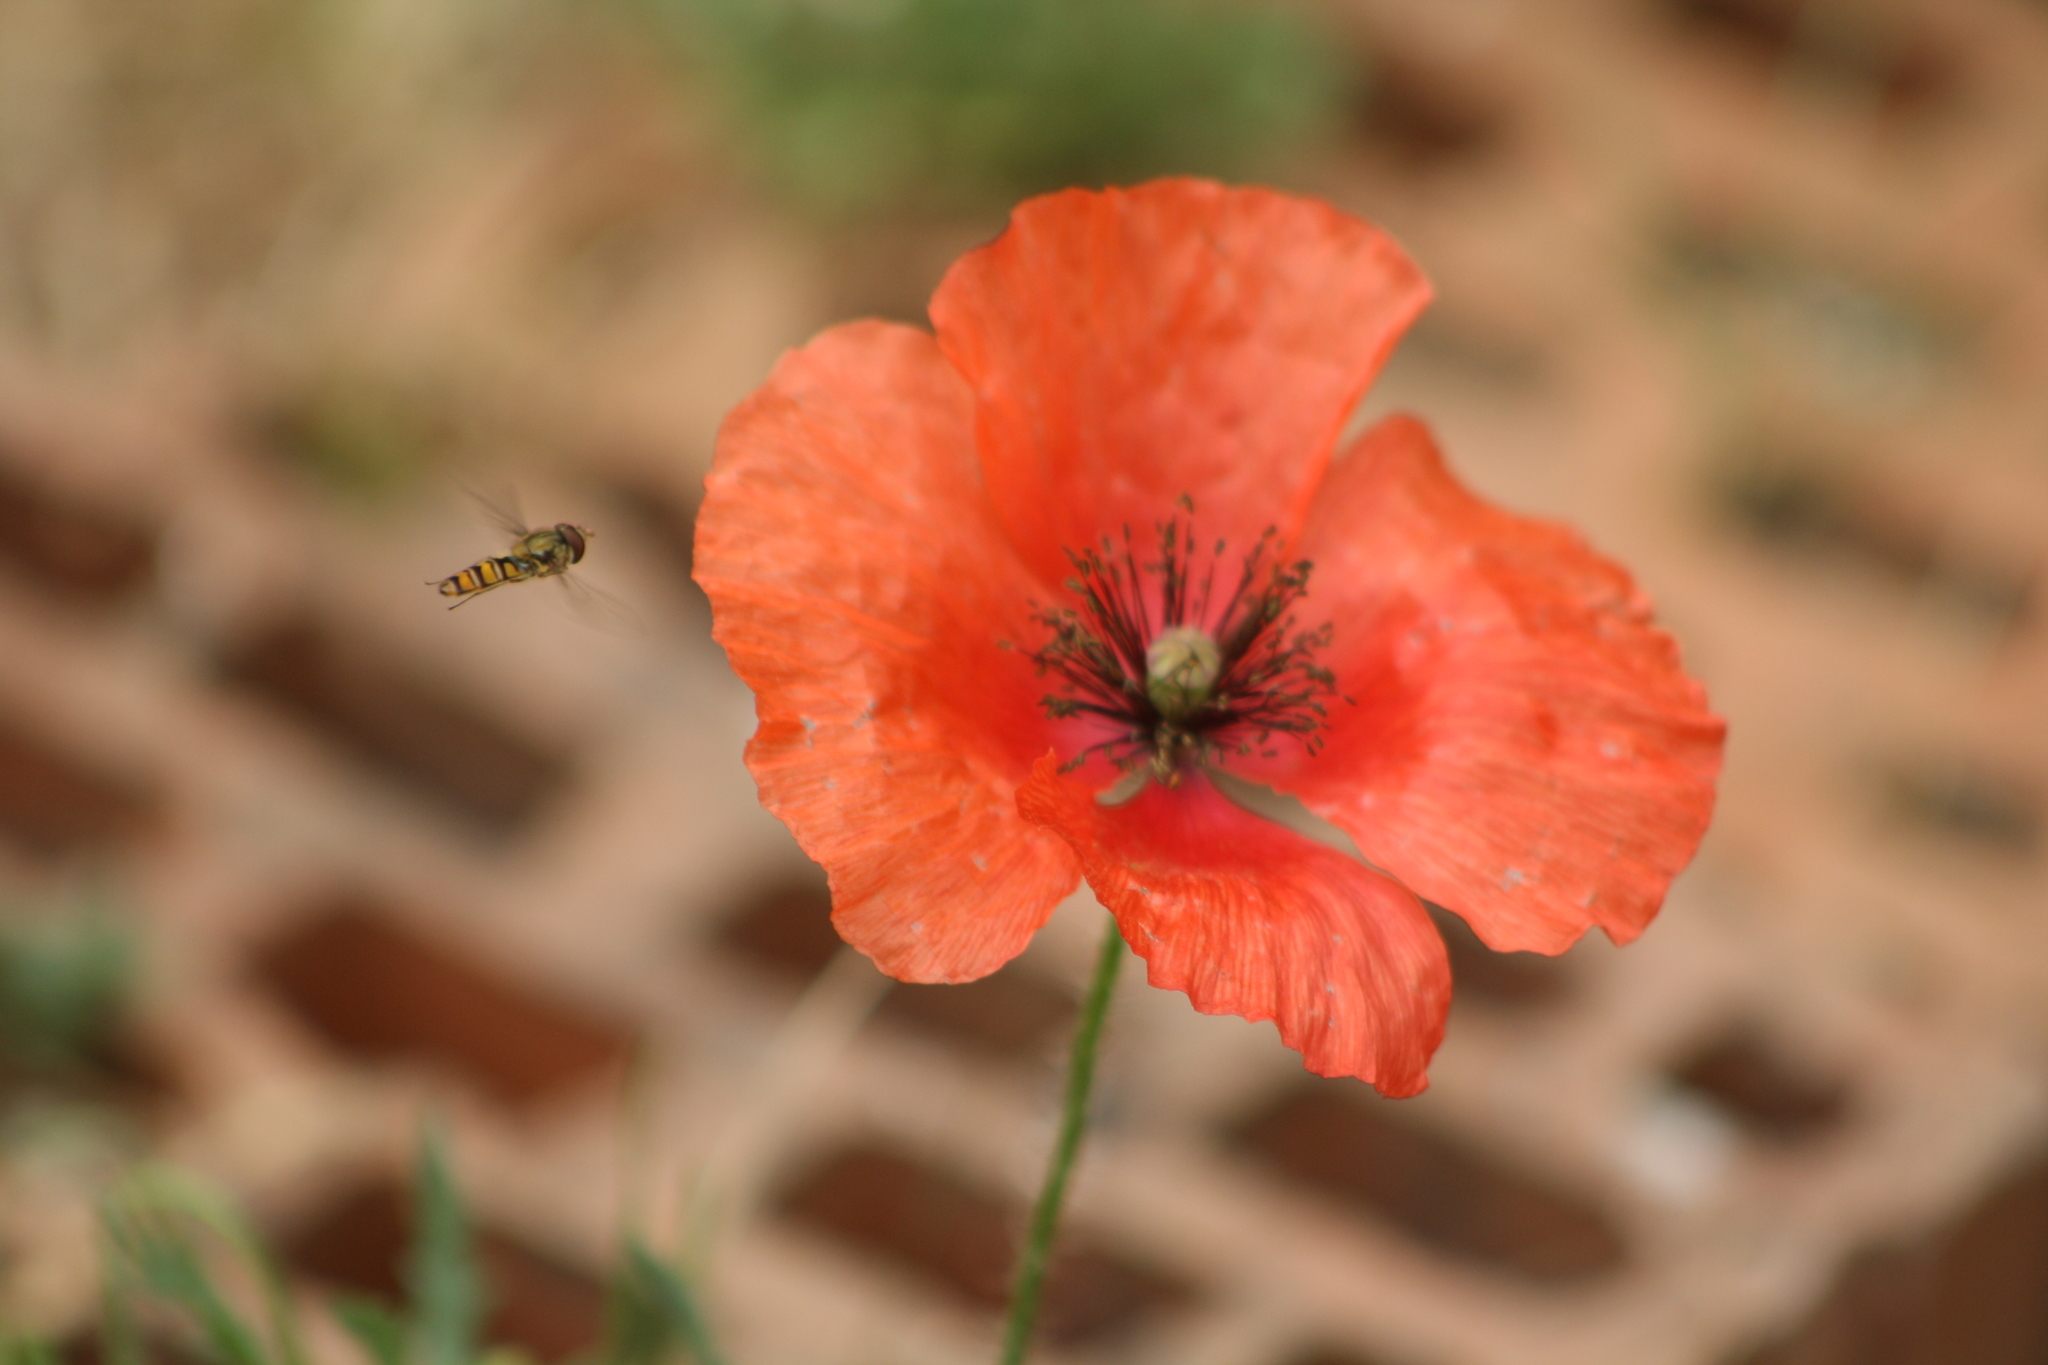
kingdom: Animalia
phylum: Arthropoda
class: Insecta
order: Diptera
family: Syrphidae
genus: Episyrphus
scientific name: Episyrphus balteatus
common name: Marmalade hoverfly
